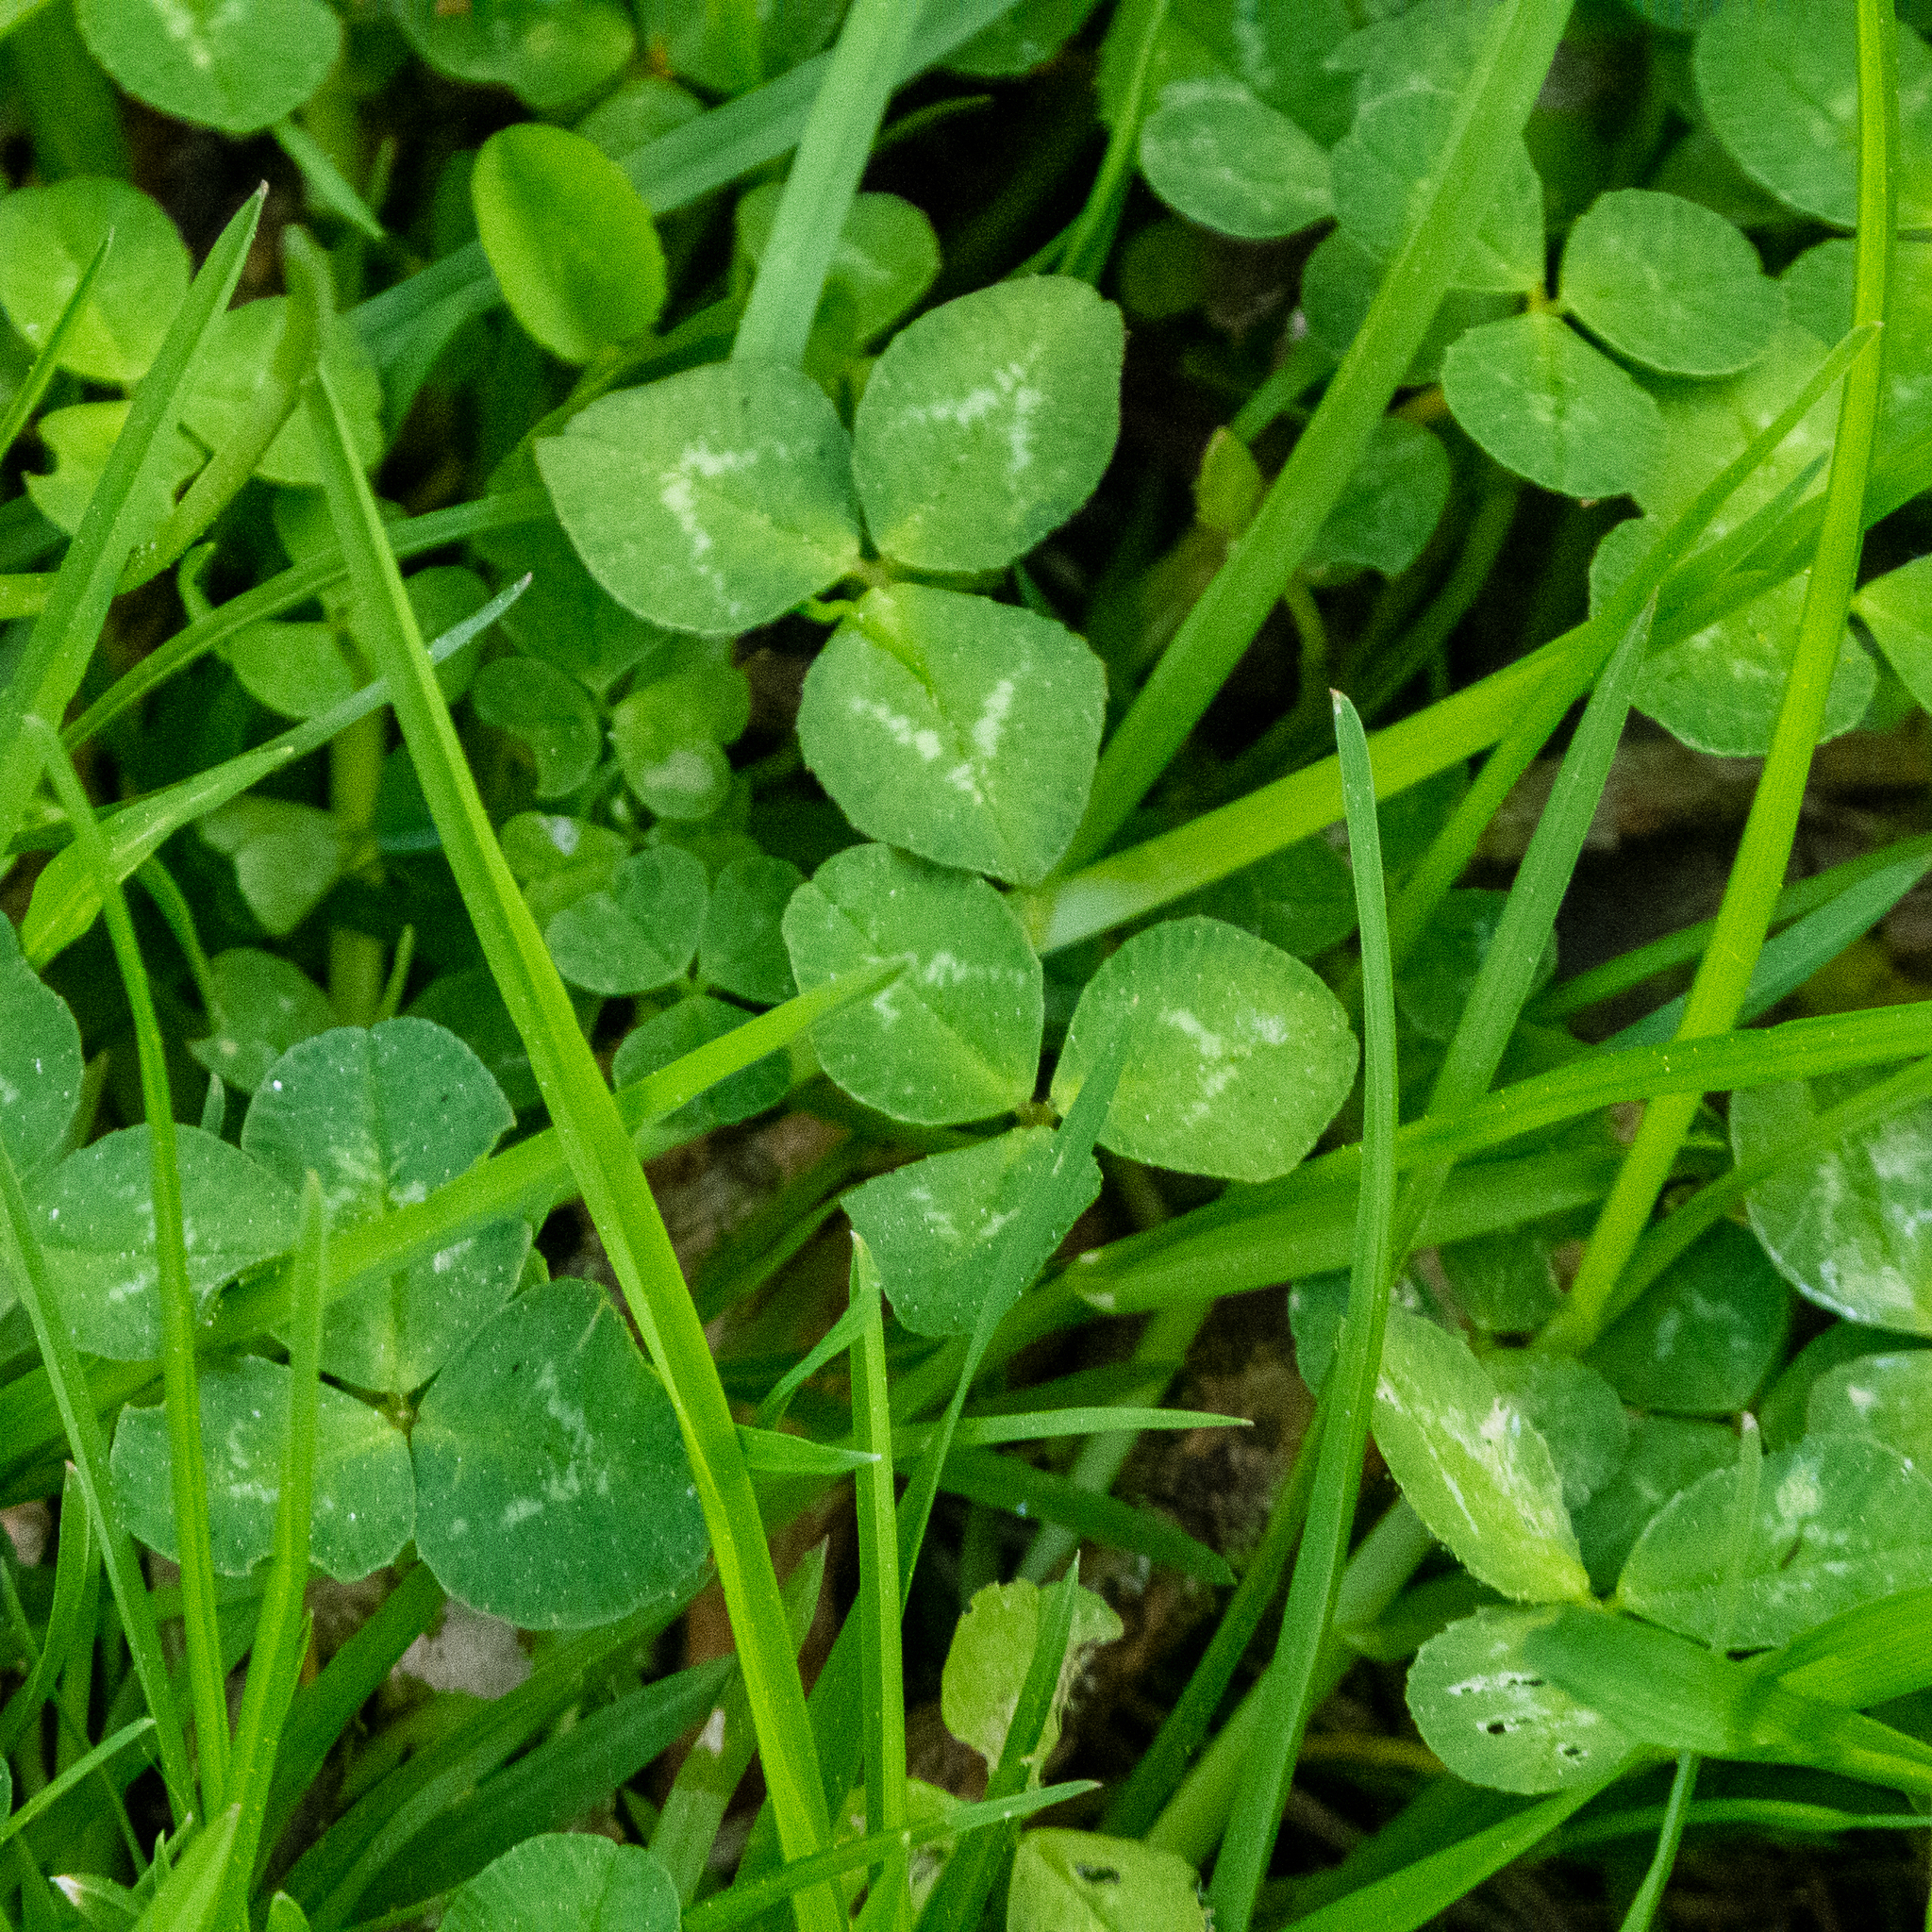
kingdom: Plantae
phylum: Tracheophyta
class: Magnoliopsida
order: Fabales
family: Fabaceae
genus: Trifolium
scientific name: Trifolium repens
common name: White clover
